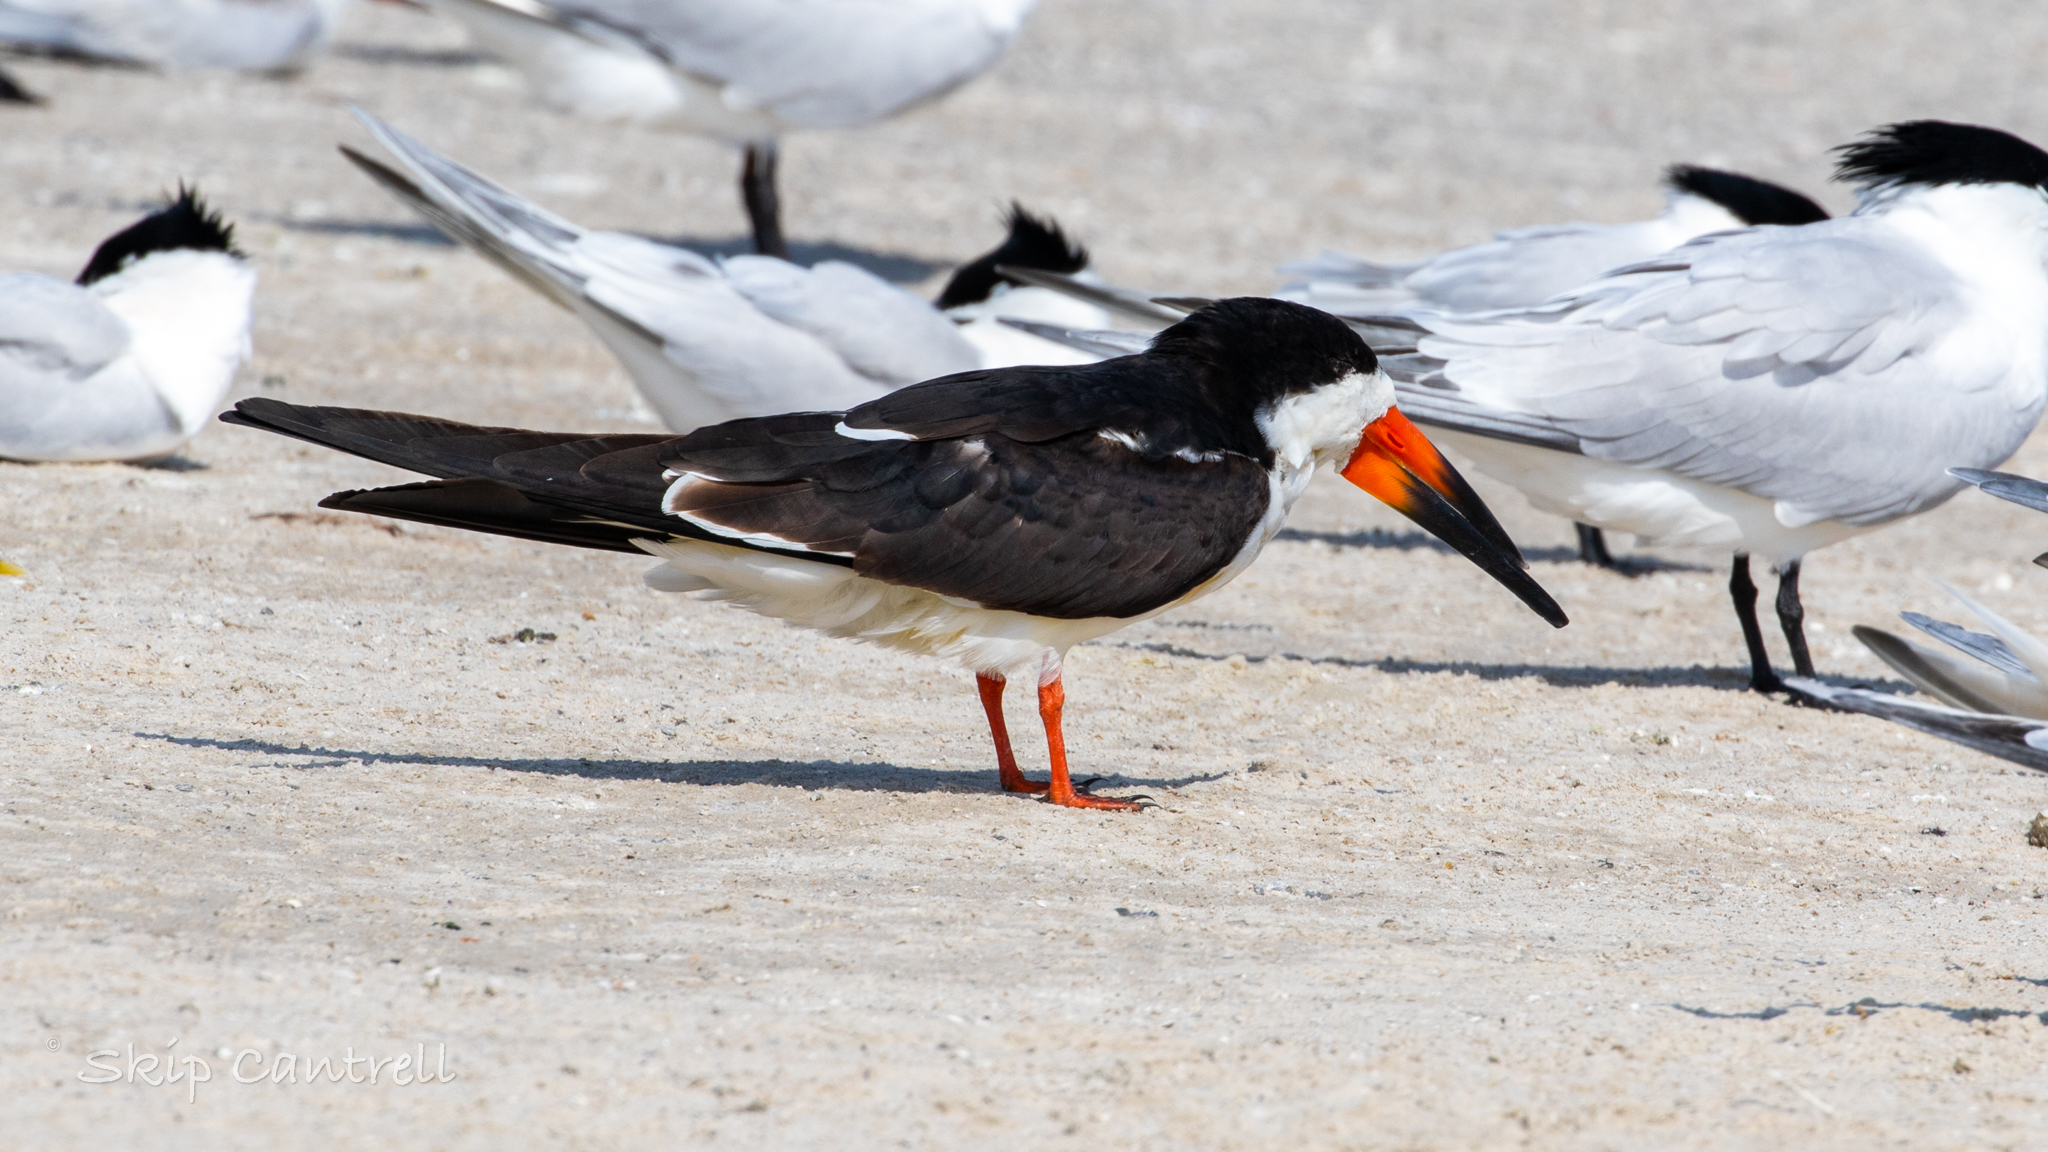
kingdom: Animalia
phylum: Chordata
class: Aves
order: Charadriiformes
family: Laridae
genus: Rynchops
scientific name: Rynchops niger
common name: Black skimmer
